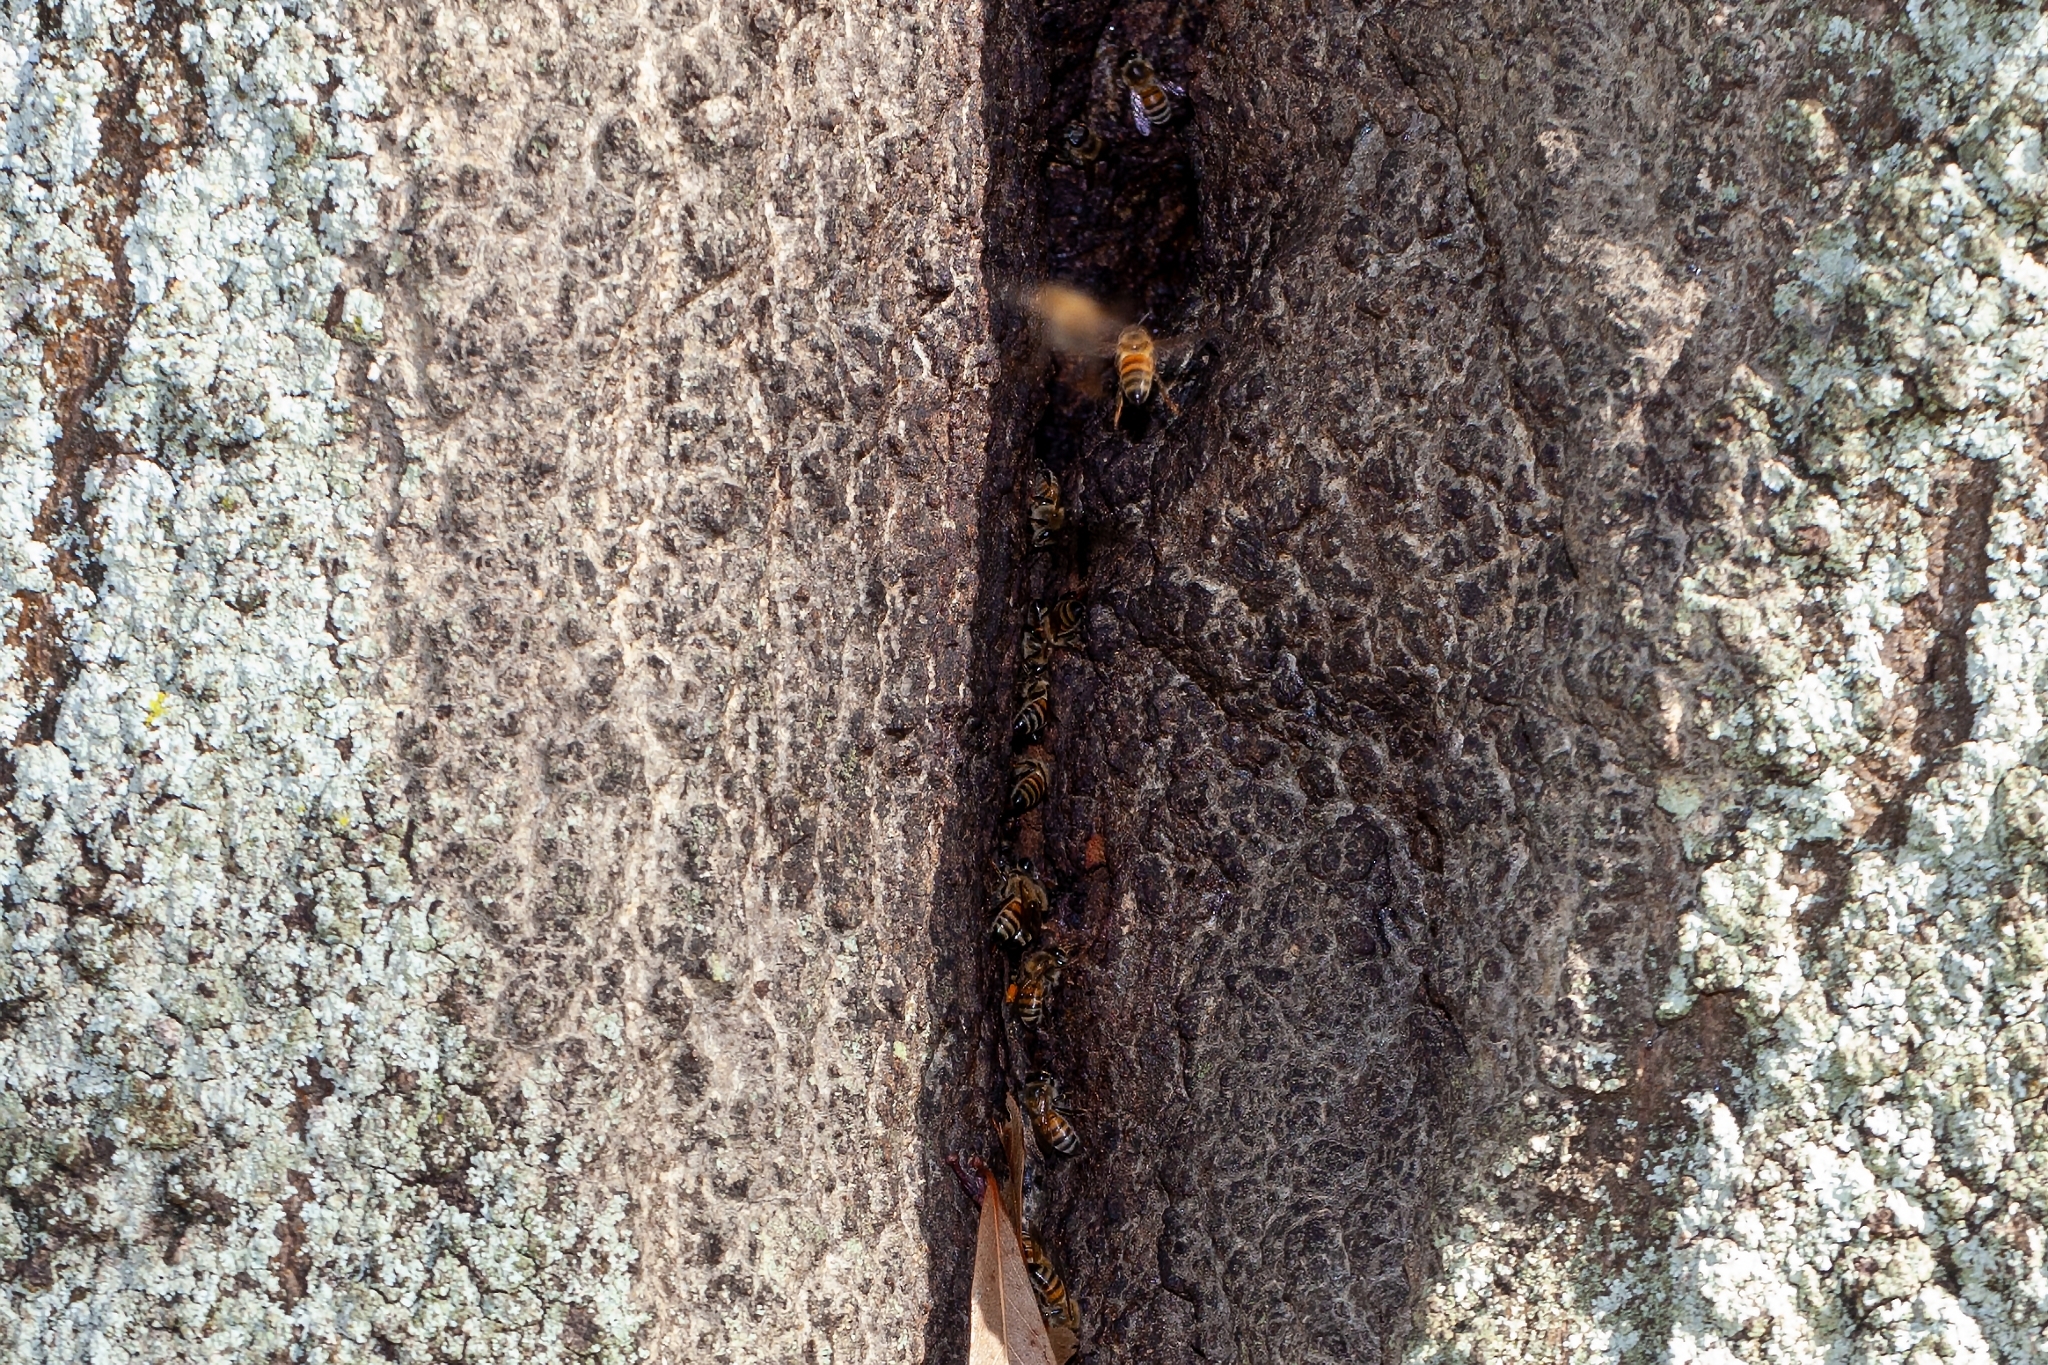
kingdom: Animalia
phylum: Arthropoda
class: Insecta
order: Hymenoptera
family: Apidae
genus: Apis
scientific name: Apis mellifera
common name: Honey bee
